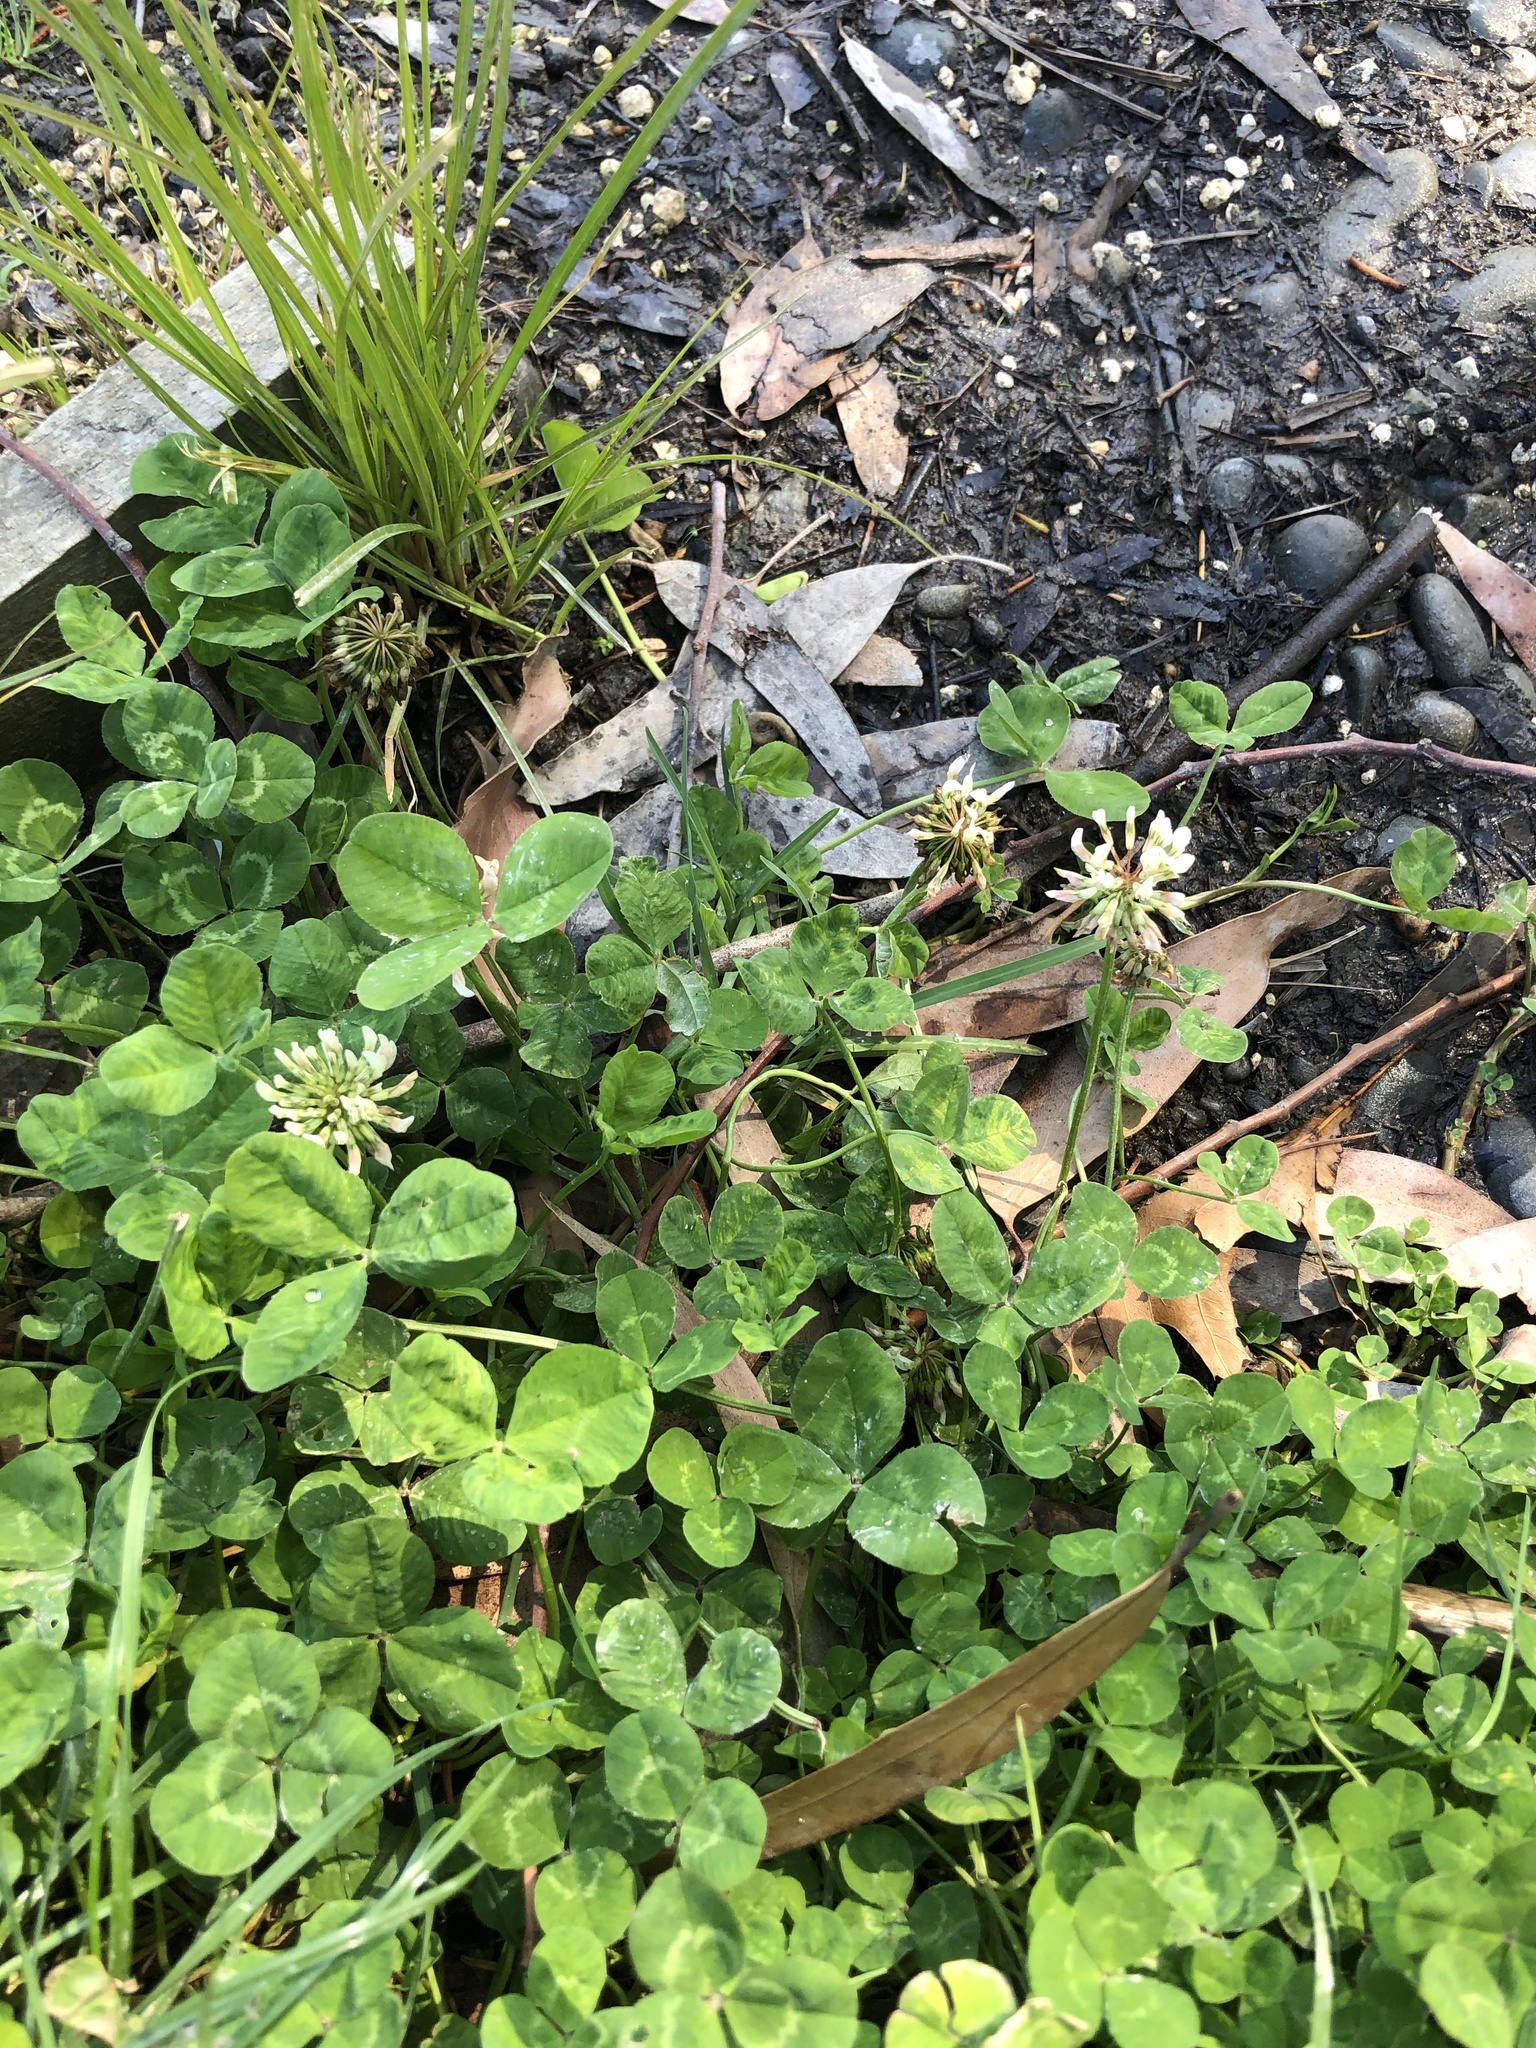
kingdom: Plantae
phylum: Tracheophyta
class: Magnoliopsida
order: Fabales
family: Fabaceae
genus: Trifolium
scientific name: Trifolium repens
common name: White clover
